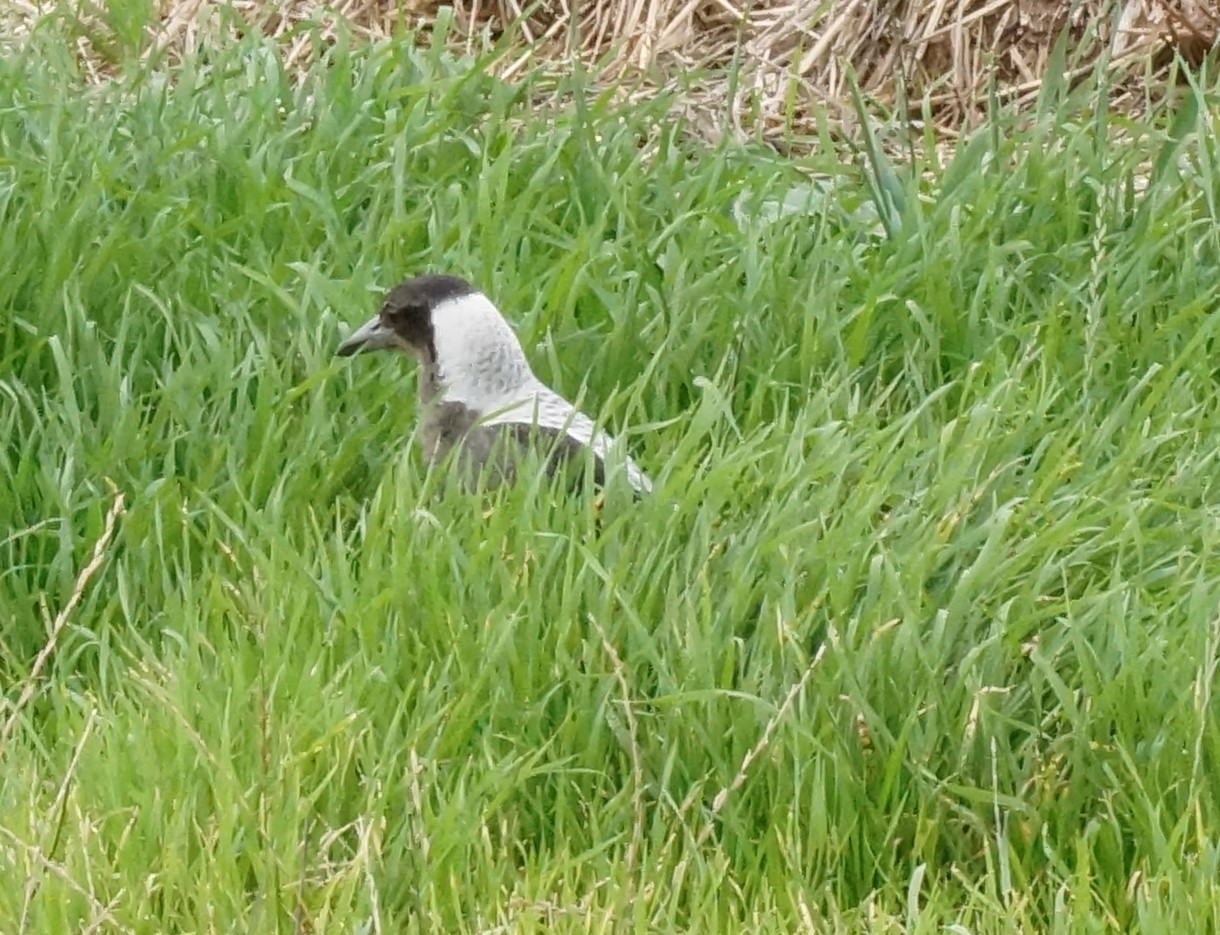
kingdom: Animalia
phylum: Chordata
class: Aves
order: Passeriformes
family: Cracticidae
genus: Gymnorhina
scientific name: Gymnorhina tibicen
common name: Australian magpie
